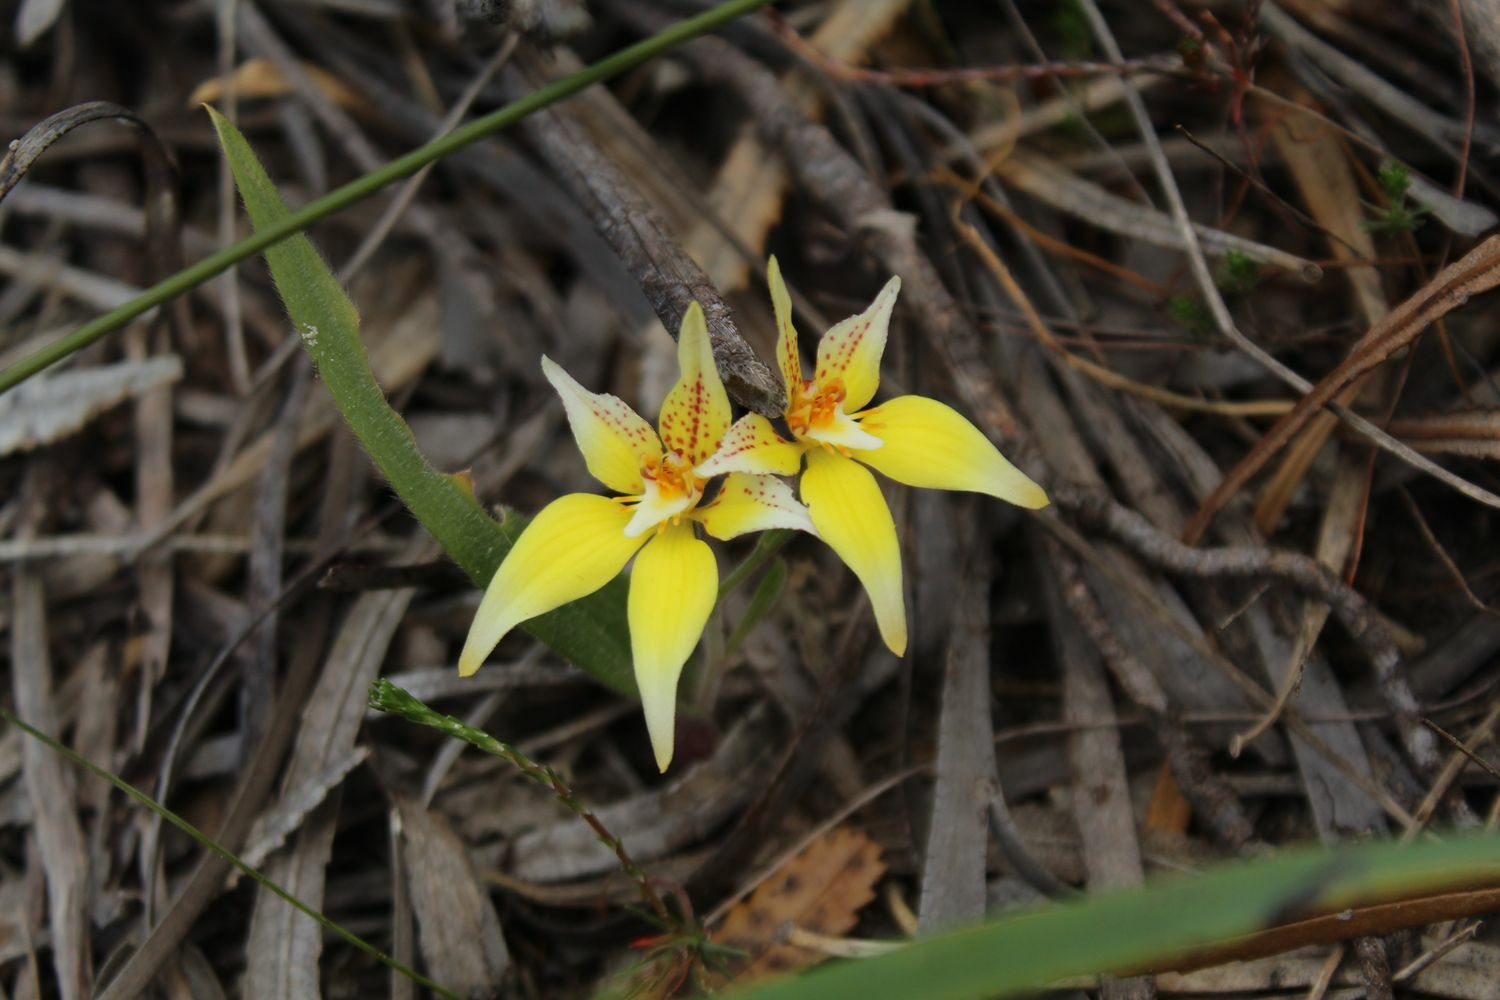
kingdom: Plantae
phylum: Tracheophyta
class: Liliopsida
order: Asparagales
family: Orchidaceae
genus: Caladenia
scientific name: Caladenia flava
